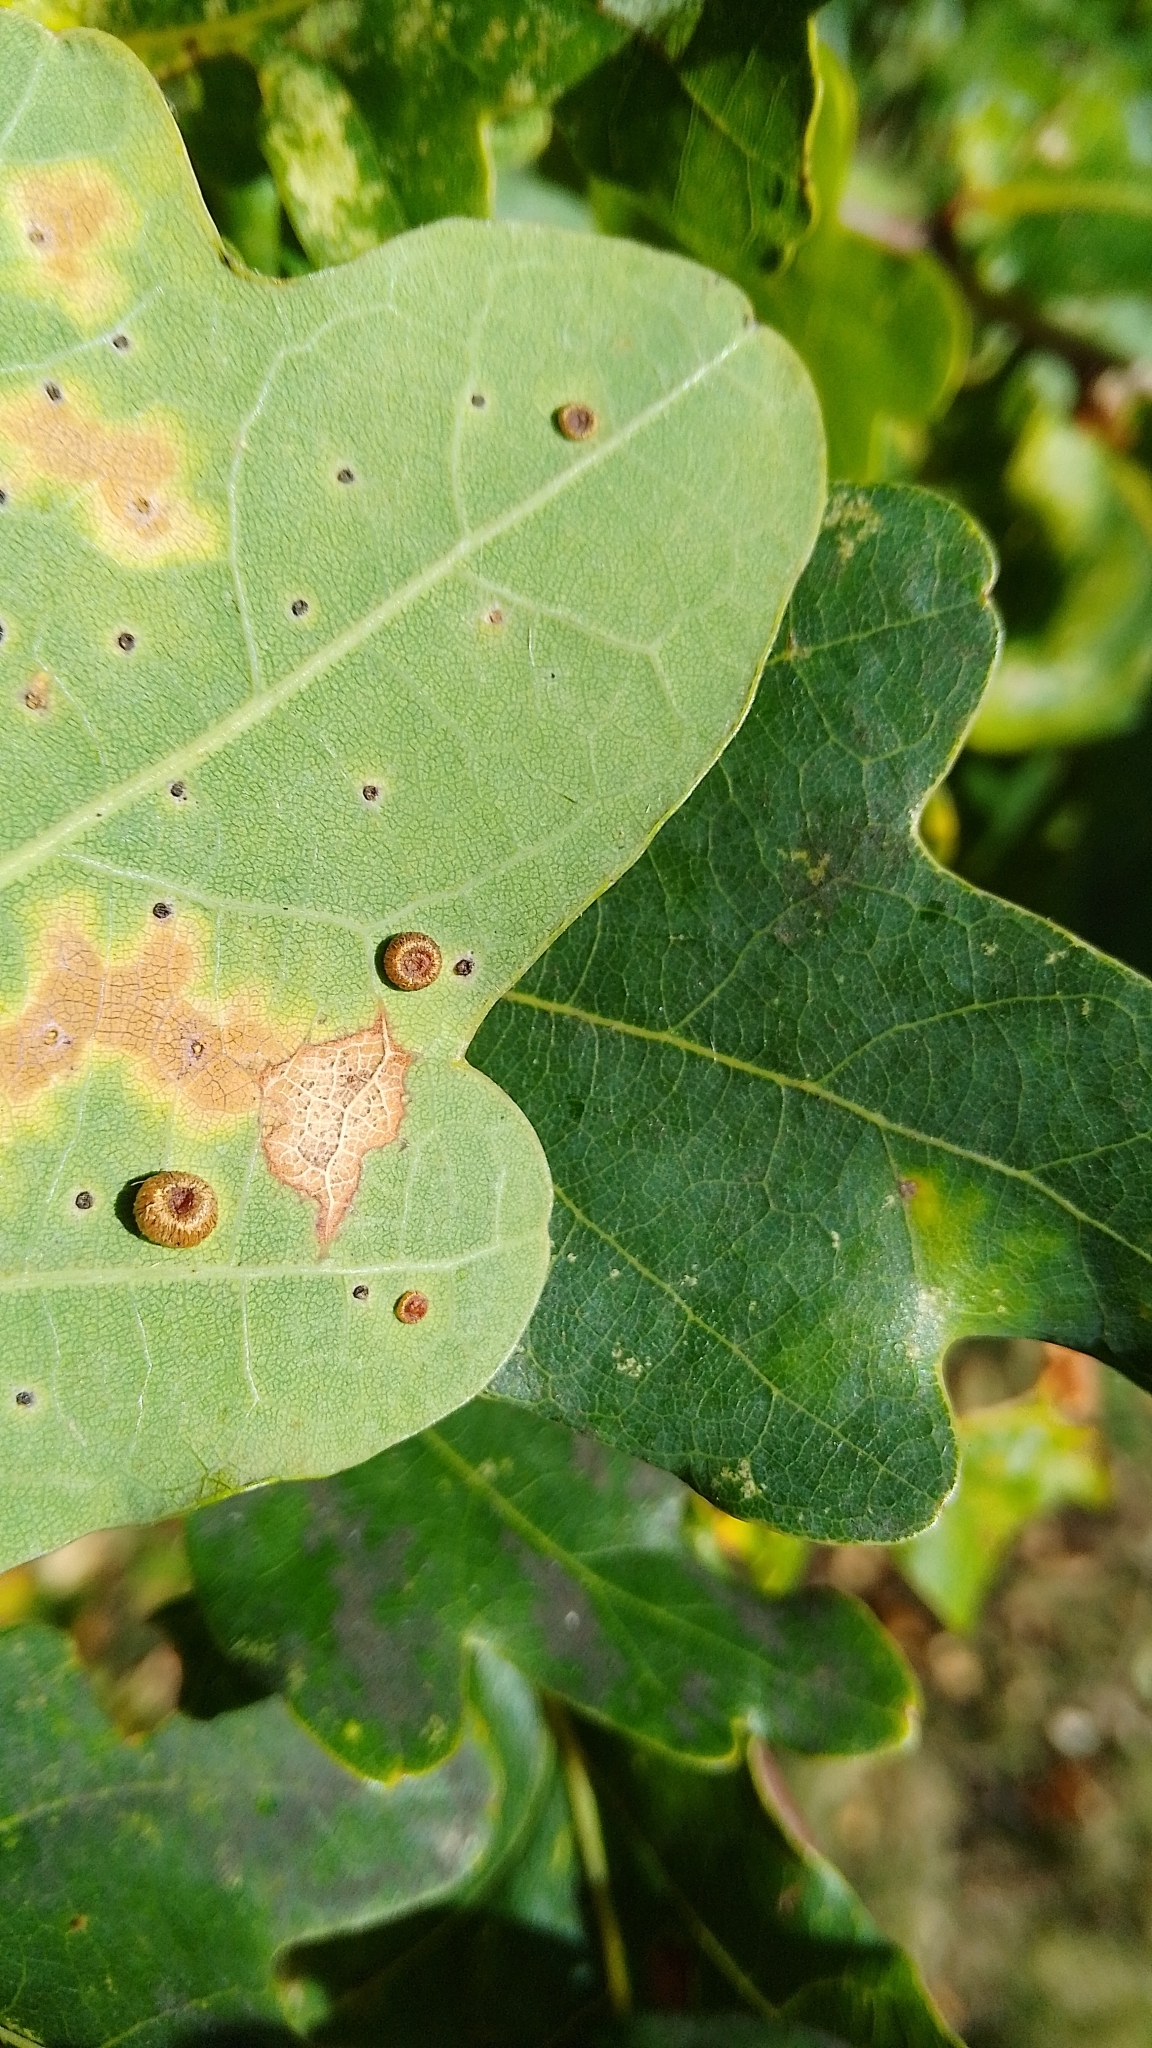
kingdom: Animalia
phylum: Arthropoda
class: Insecta
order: Hymenoptera
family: Cynipidae
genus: Neuroterus
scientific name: Neuroterus numismalis
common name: Silk-button spangle gall
